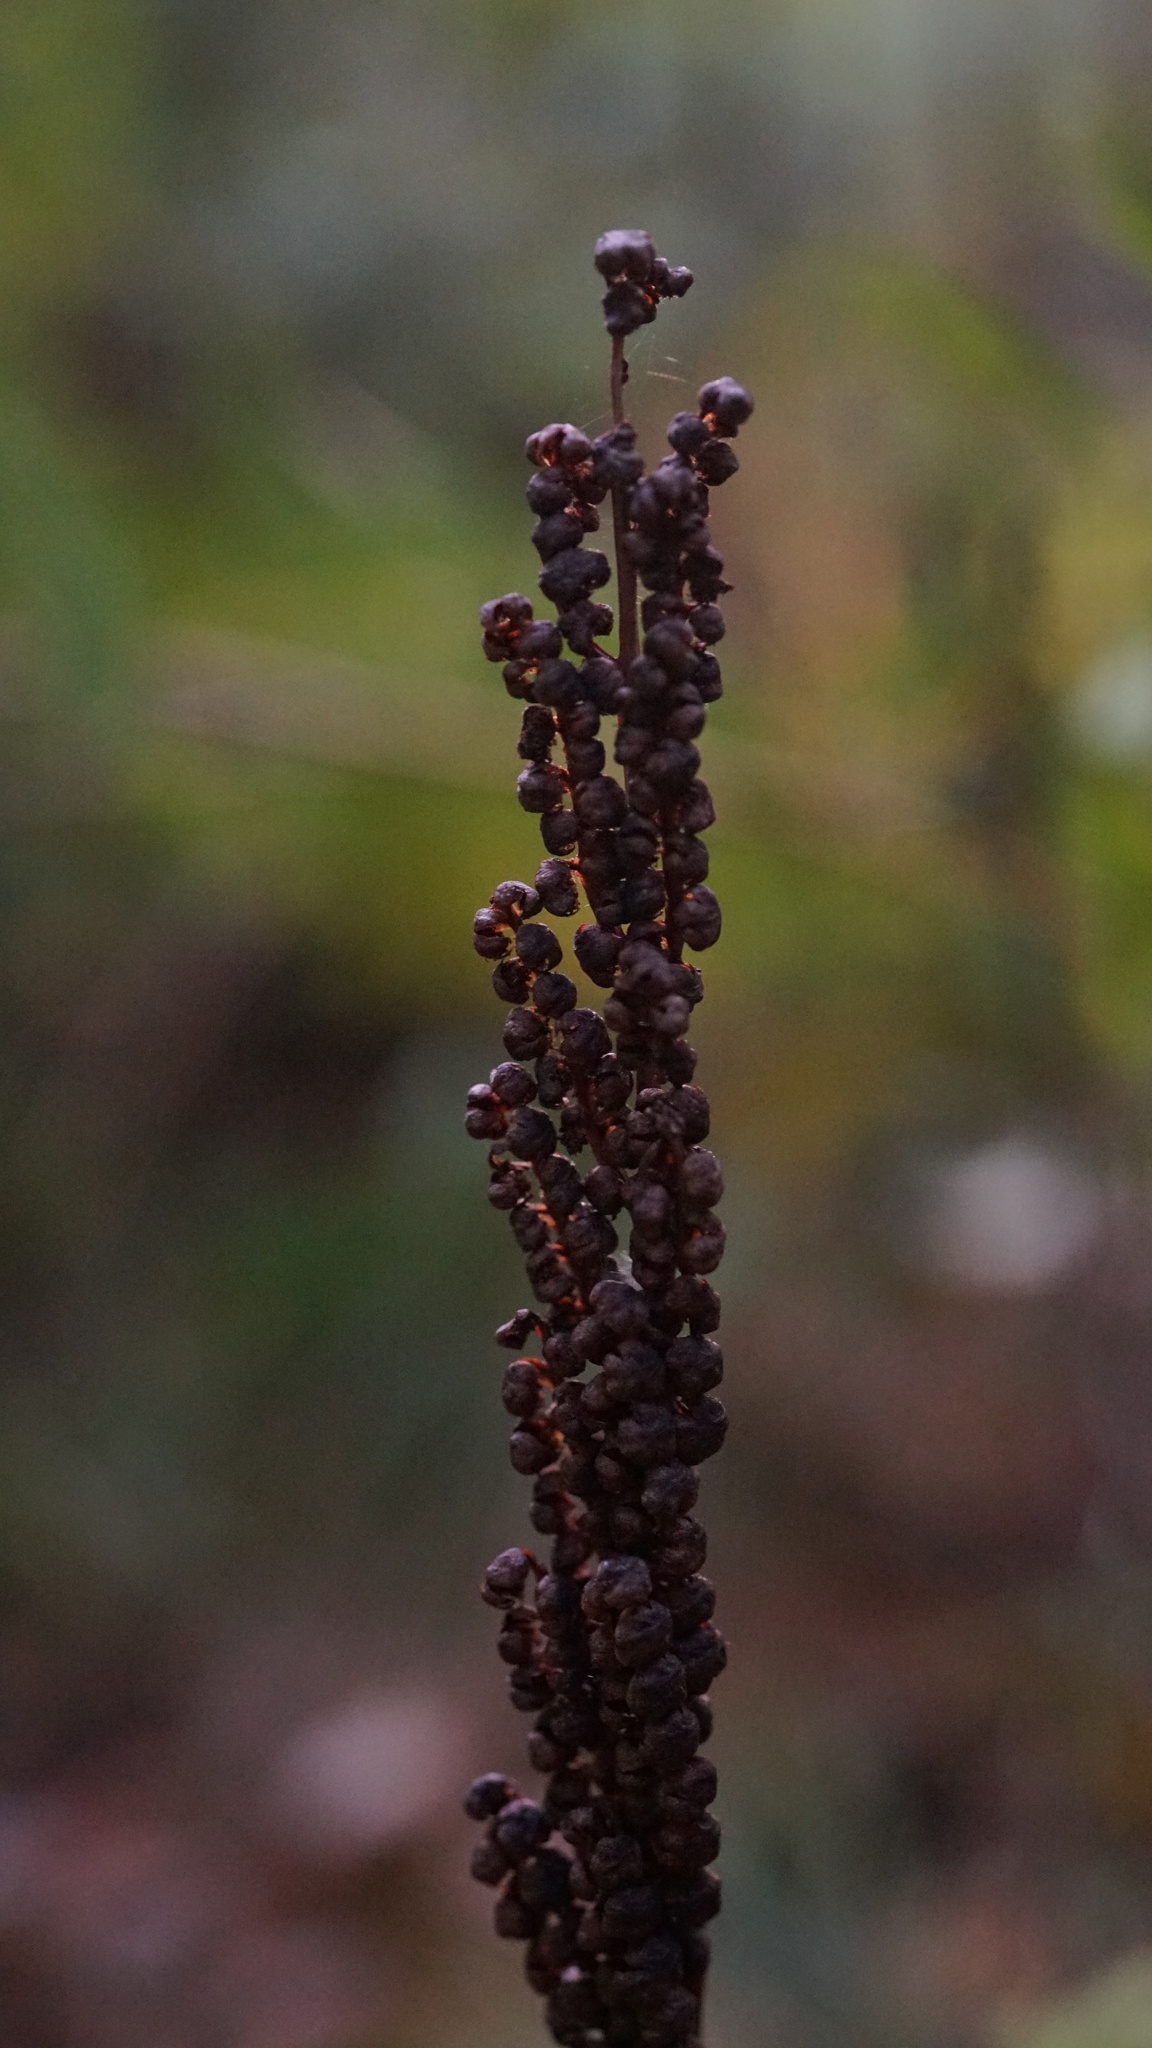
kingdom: Plantae
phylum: Tracheophyta
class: Polypodiopsida
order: Polypodiales
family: Onocleaceae
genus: Onoclea
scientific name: Onoclea sensibilis
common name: Sensitive fern
